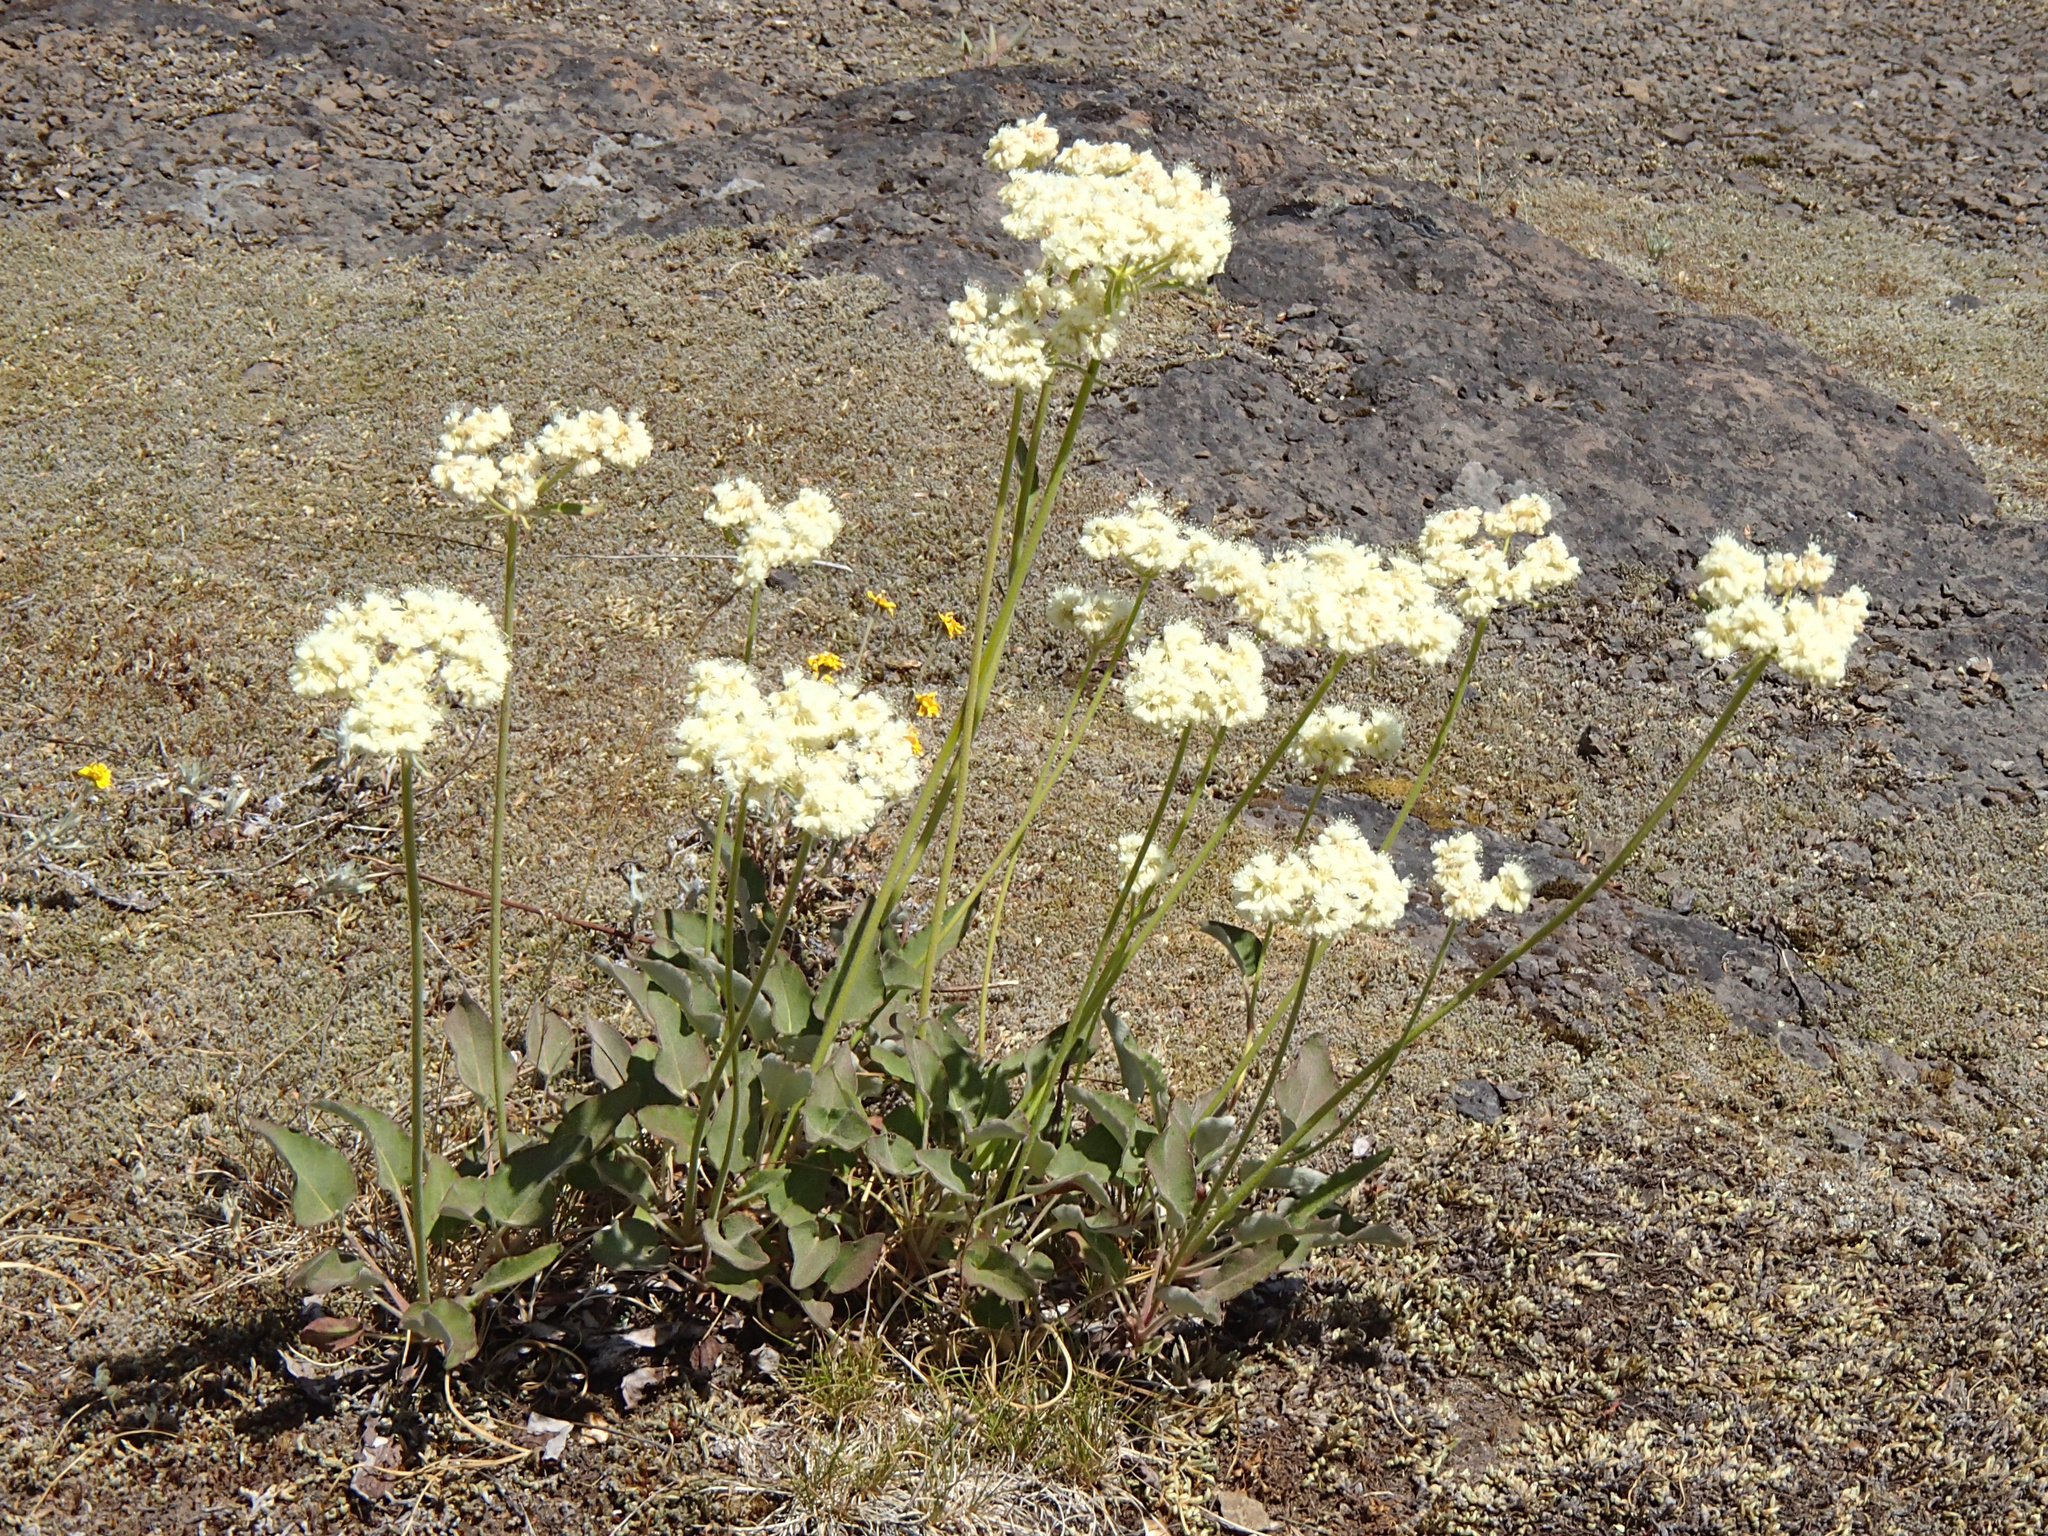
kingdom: Plantae
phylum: Tracheophyta
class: Magnoliopsida
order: Caryophyllales
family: Polygonaceae
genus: Eriogonum
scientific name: Eriogonum compositum
